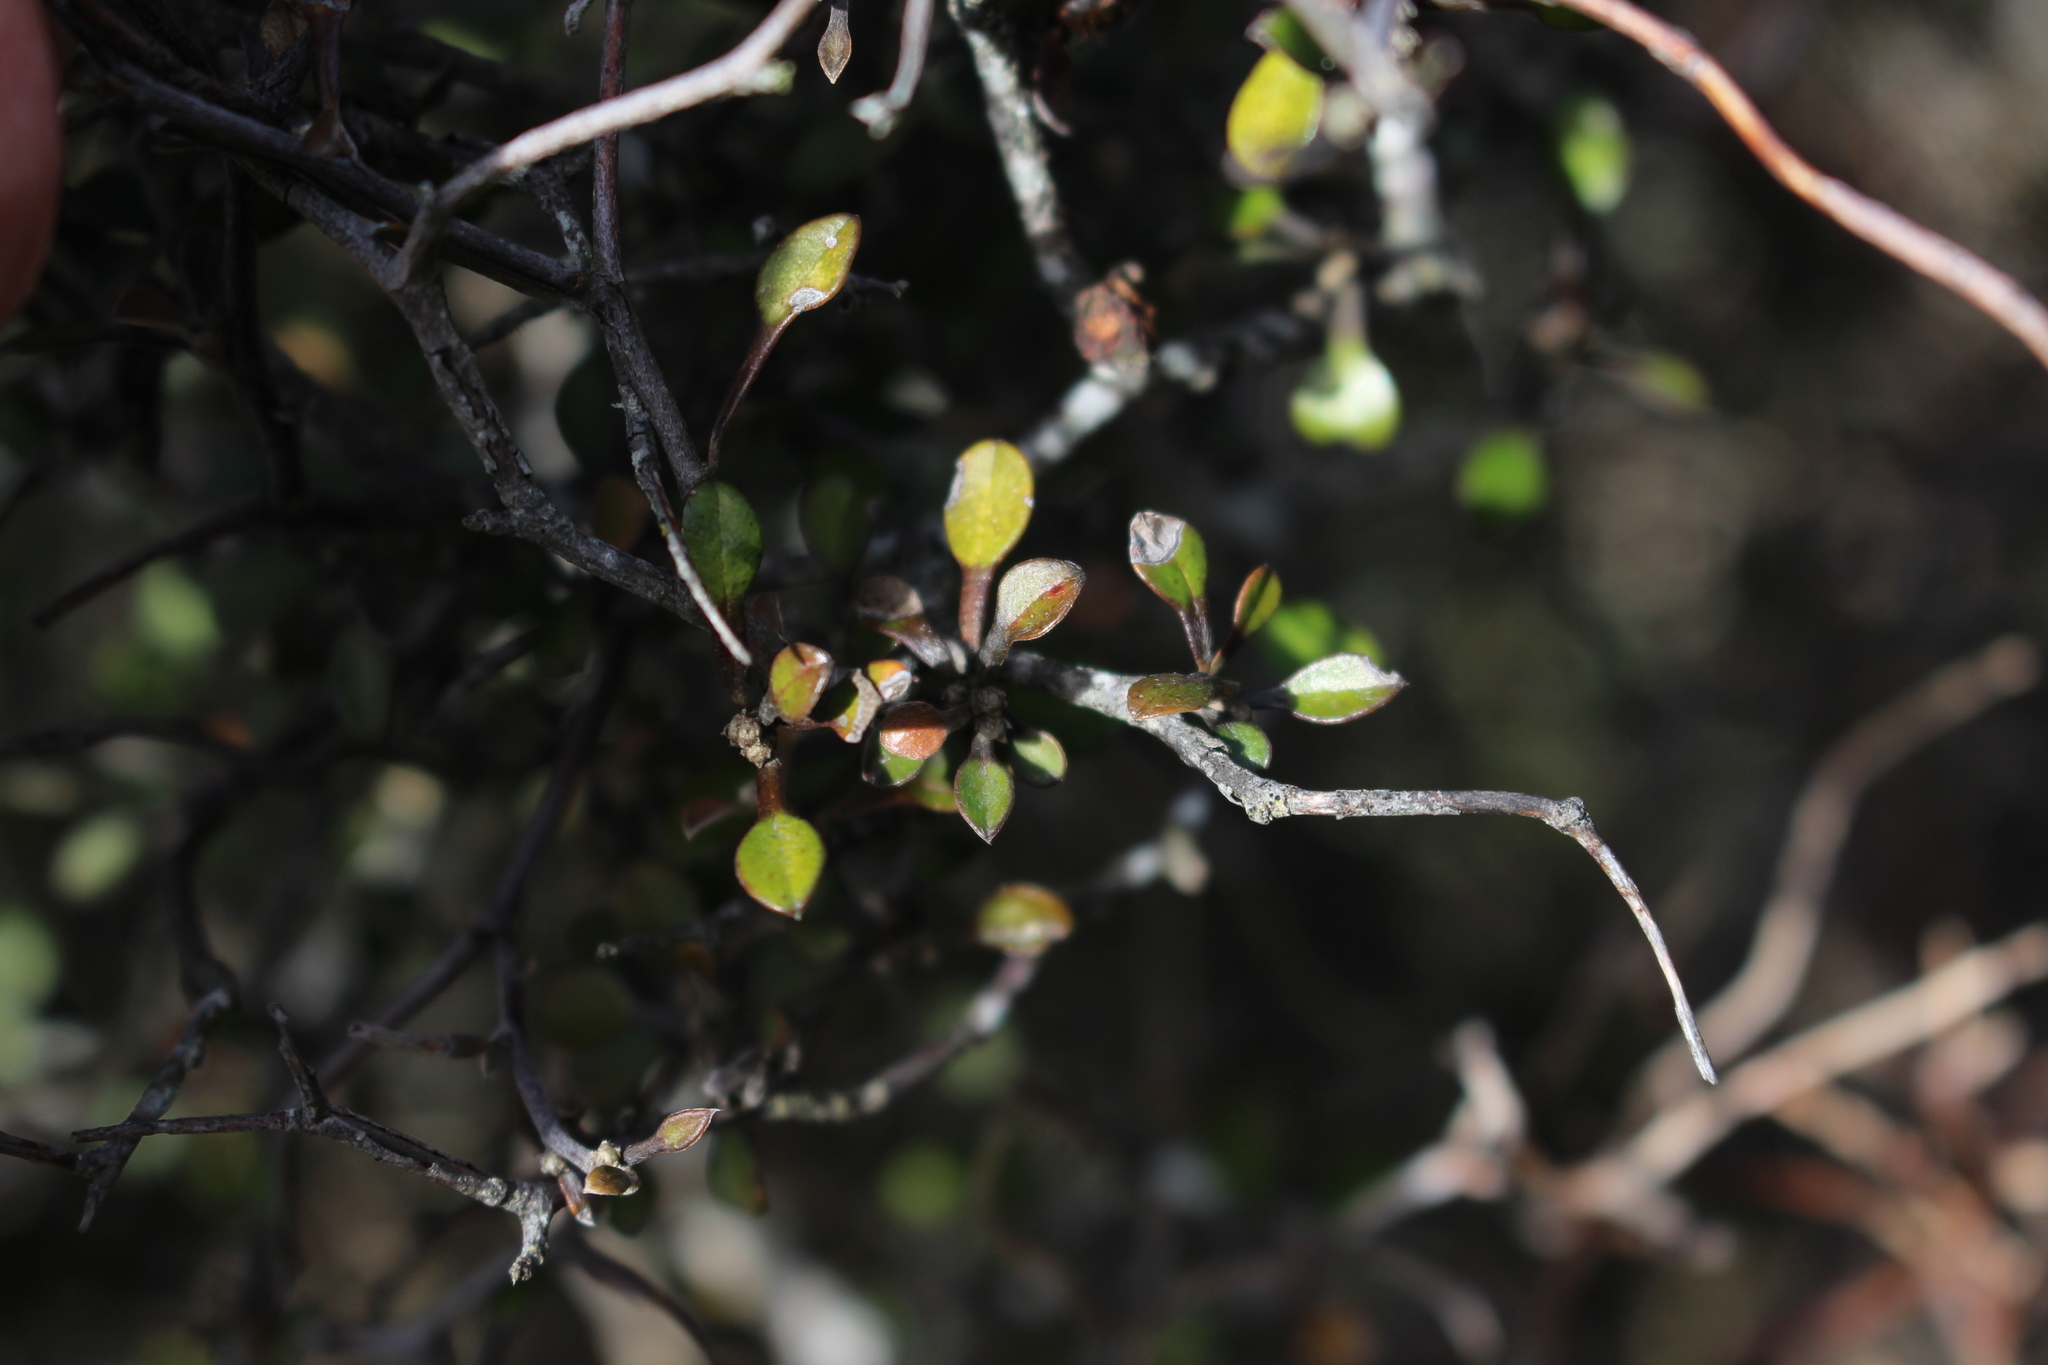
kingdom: Plantae
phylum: Tracheophyta
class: Magnoliopsida
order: Asterales
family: Argophyllaceae
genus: Corokia
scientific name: Corokia cotoneaster
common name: Wire nettingbush
